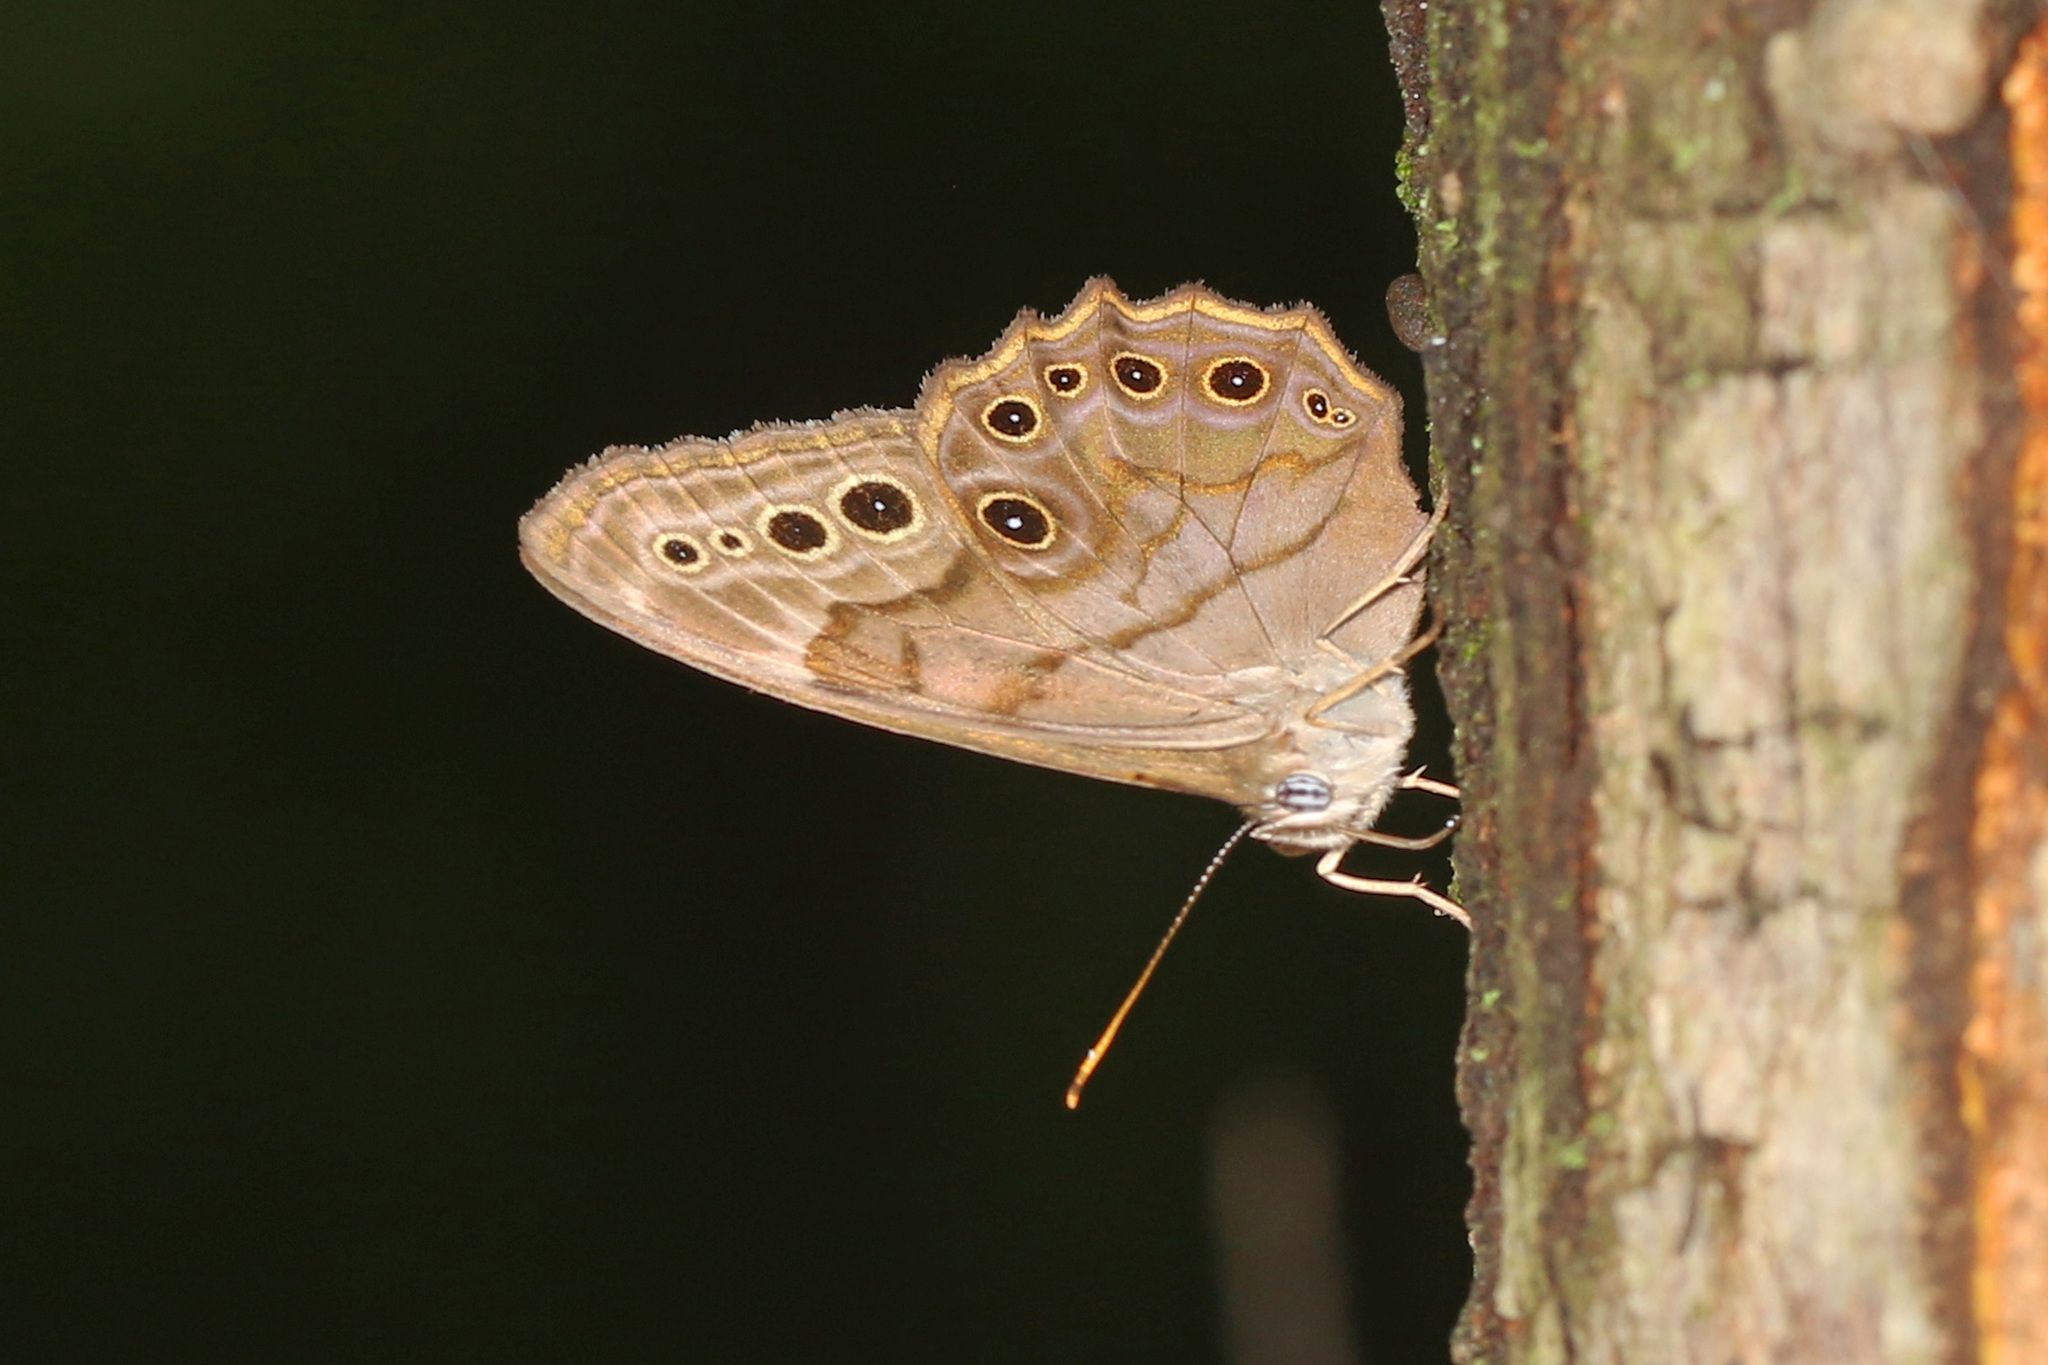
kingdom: Animalia
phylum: Arthropoda
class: Insecta
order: Lepidoptera
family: Nymphalidae
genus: Lethe
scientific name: Lethe anthedon
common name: Northern pearly-eye
